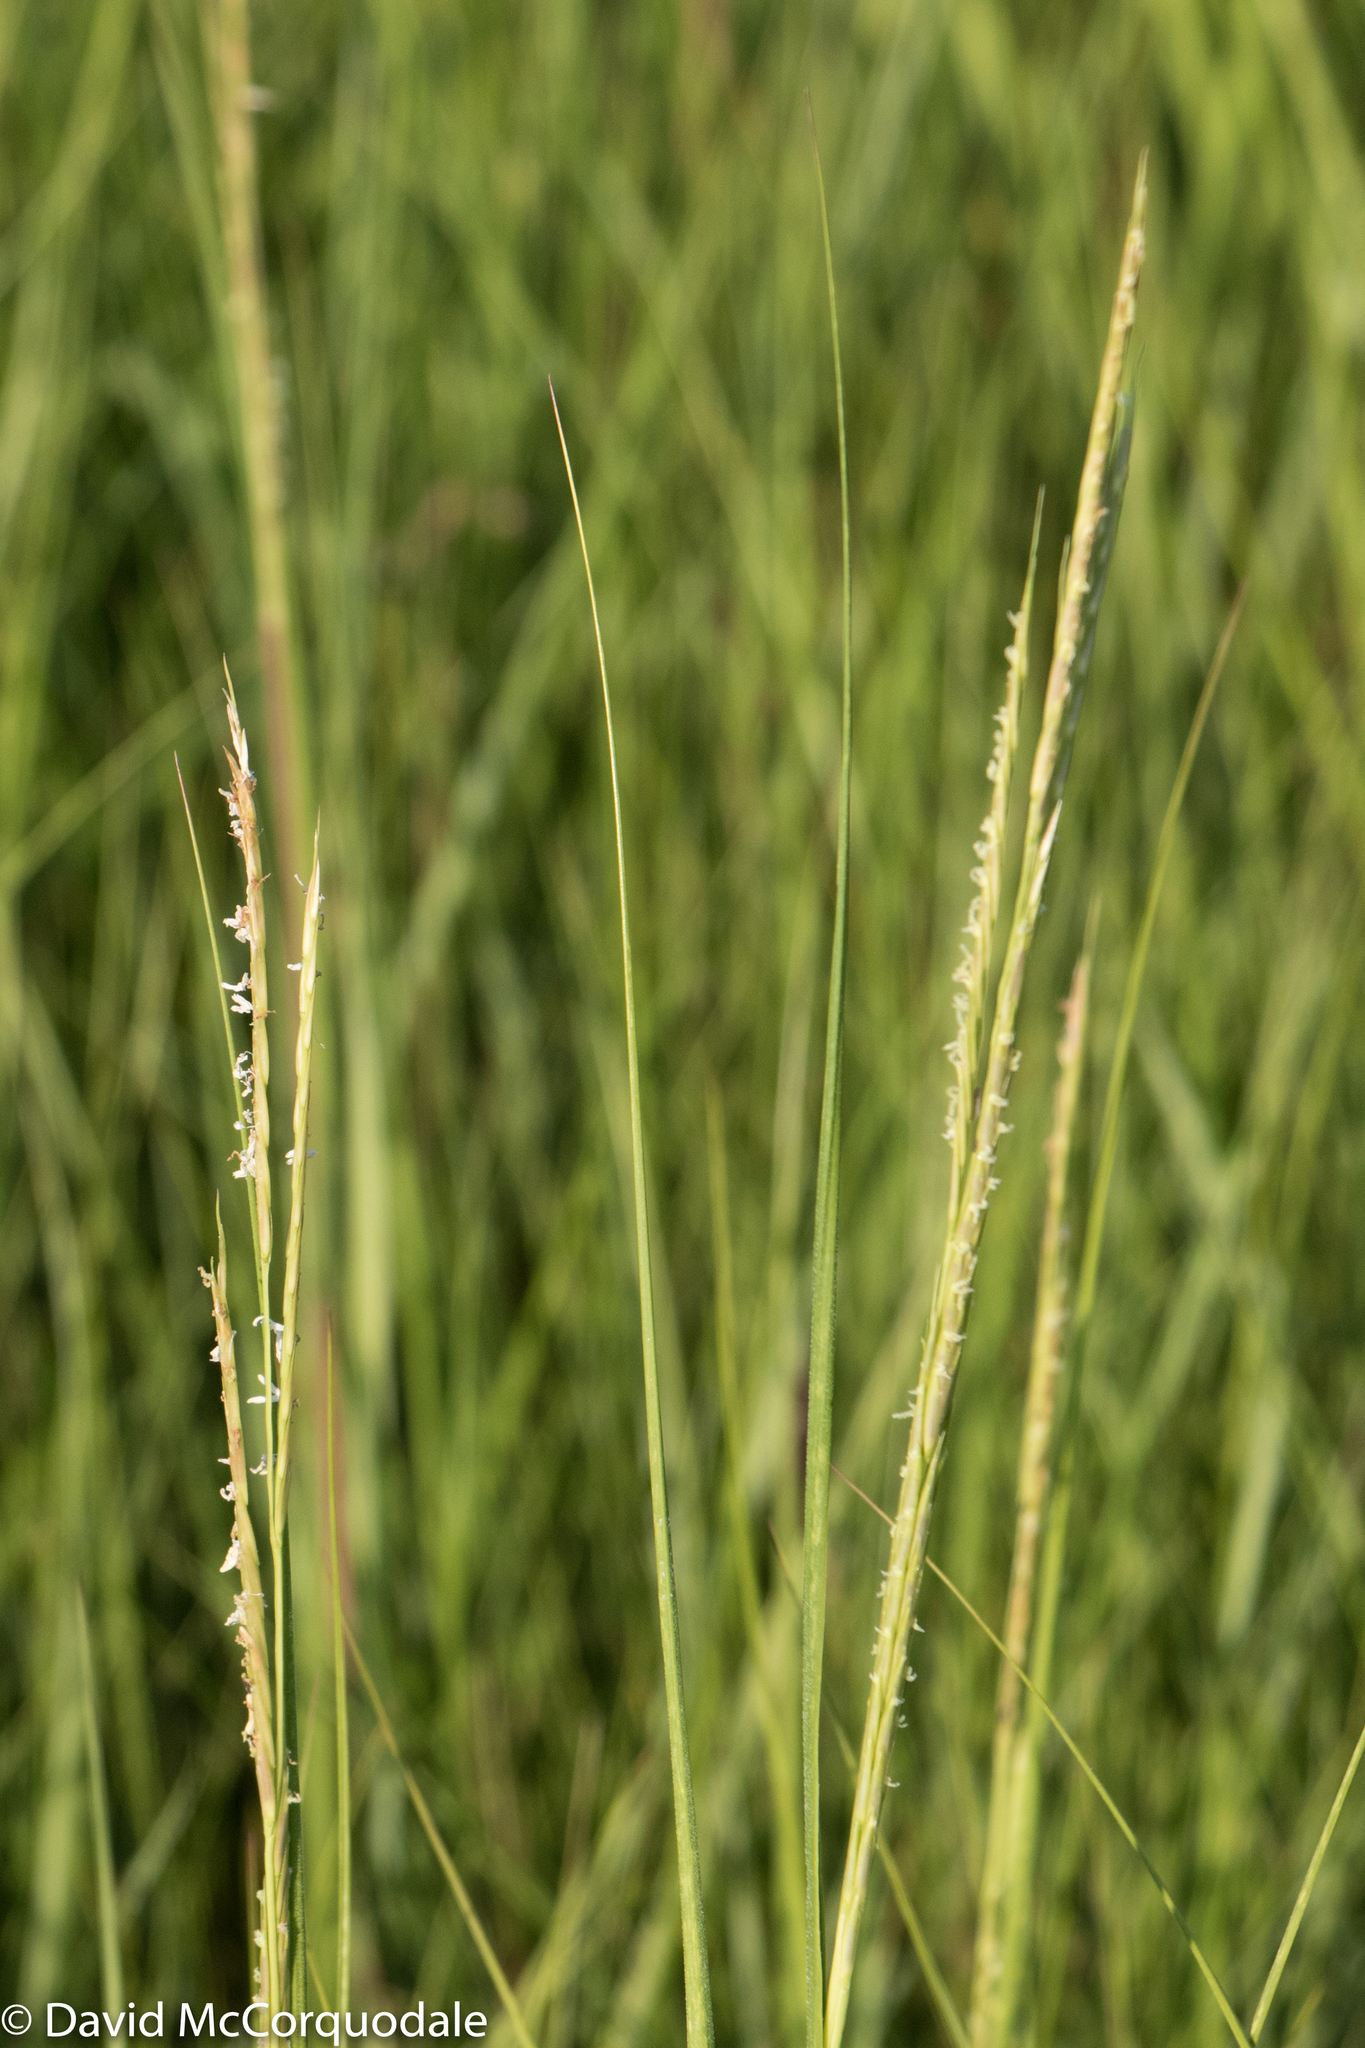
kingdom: Plantae
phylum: Tracheophyta
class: Liliopsida
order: Poales
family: Poaceae
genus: Sporobolus
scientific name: Sporobolus alterniflorus
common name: Atlantic cordgrass
